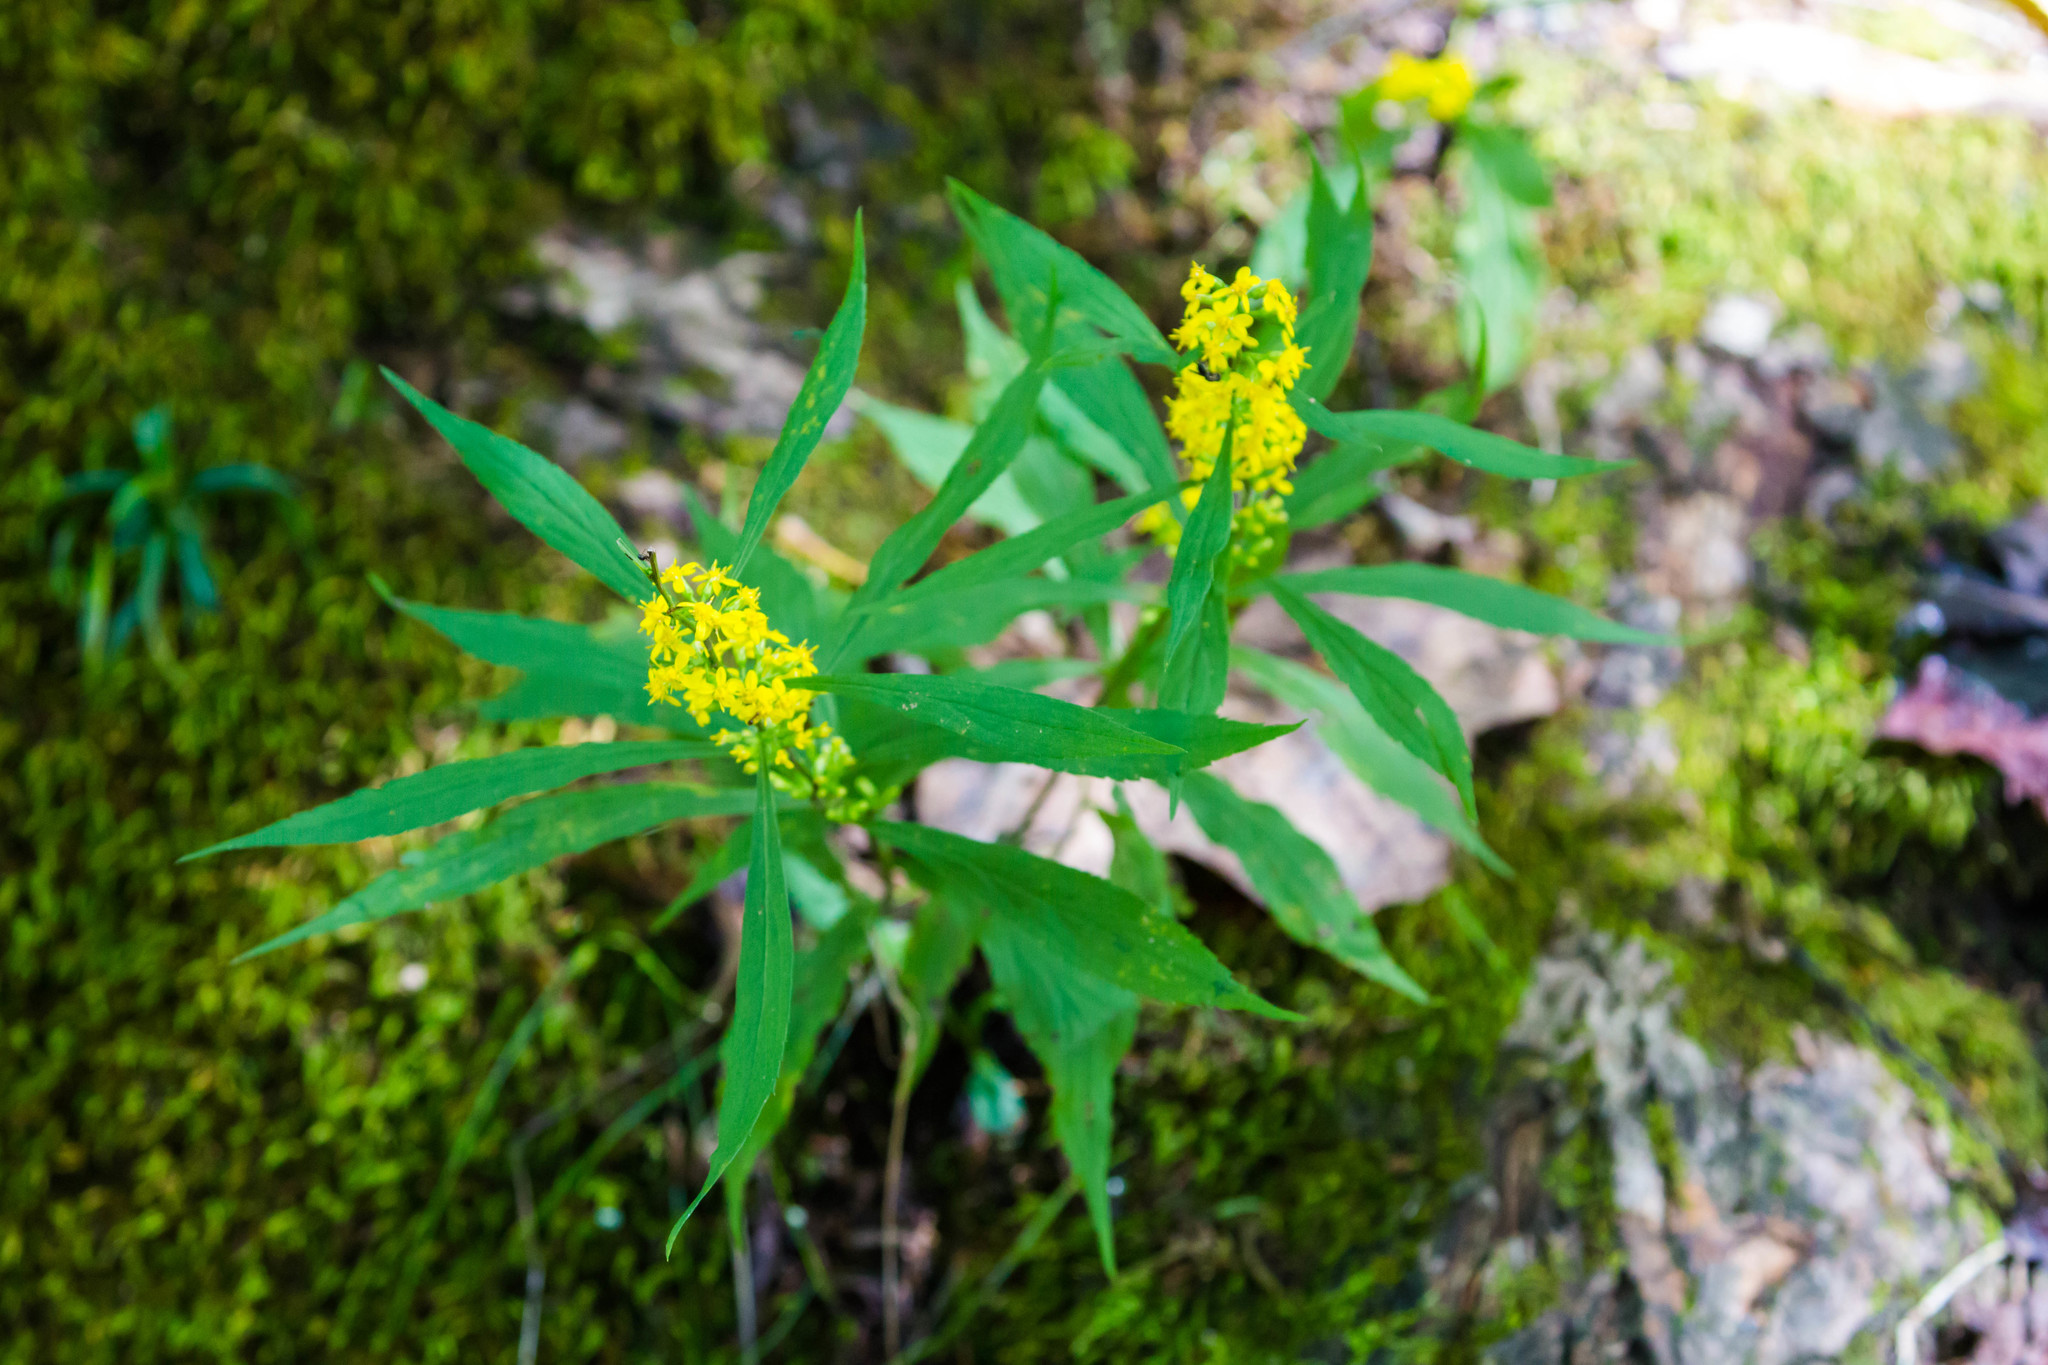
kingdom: Plantae
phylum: Tracheophyta
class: Magnoliopsida
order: Asterales
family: Asteraceae
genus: Solidago
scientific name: Solidago caesia
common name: Woodland goldenrod
